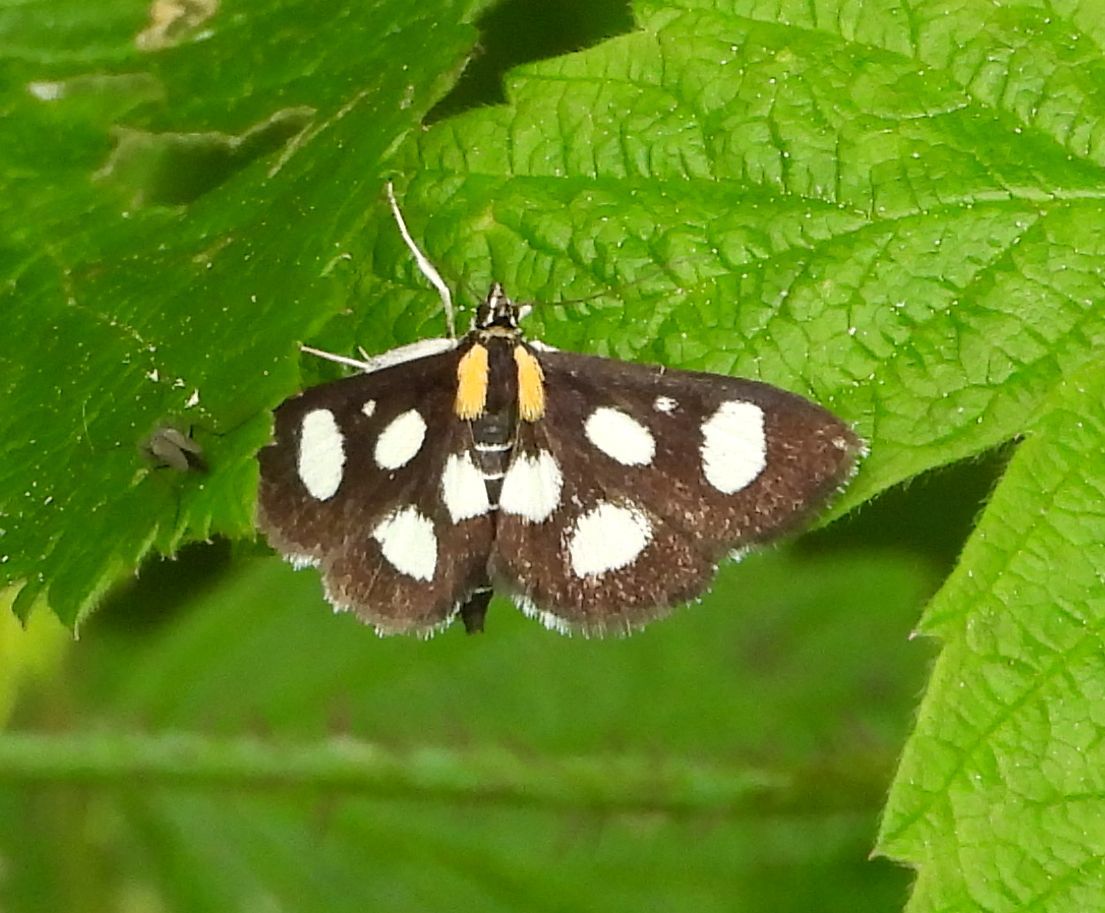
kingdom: Animalia
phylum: Arthropoda
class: Insecta
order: Lepidoptera
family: Crambidae
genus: Anania
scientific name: Anania funebris
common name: White-spotted sable moth
